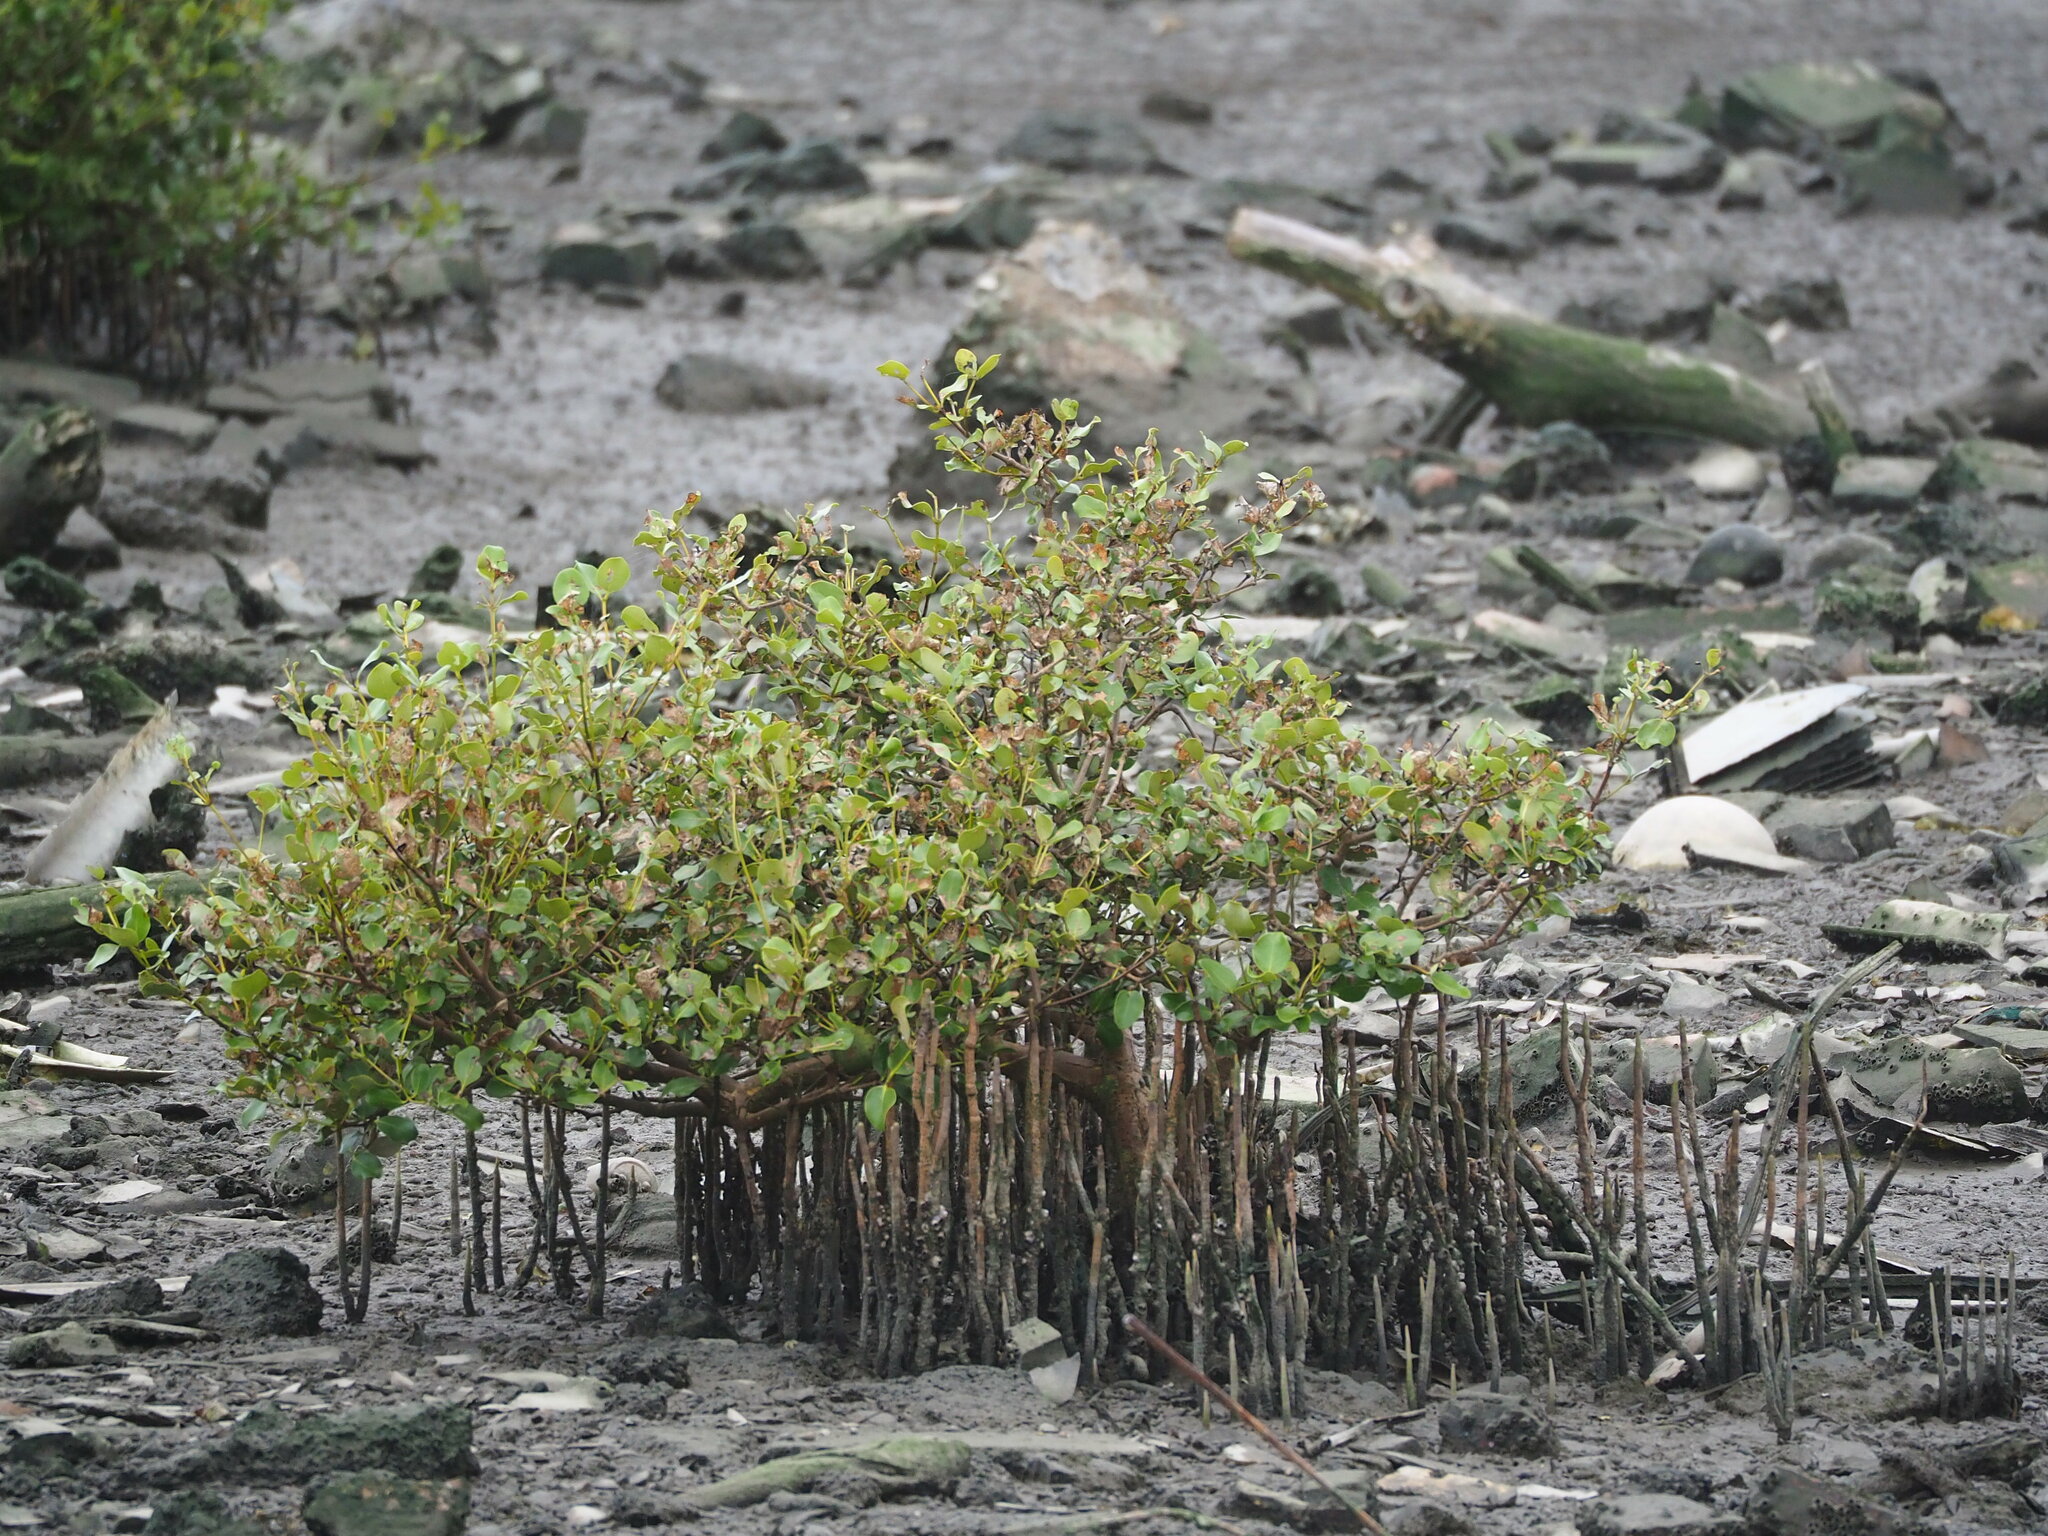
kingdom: Plantae
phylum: Tracheophyta
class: Magnoliopsida
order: Lamiales
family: Acanthaceae
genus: Avicennia
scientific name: Avicennia marina
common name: Gray mangrove
